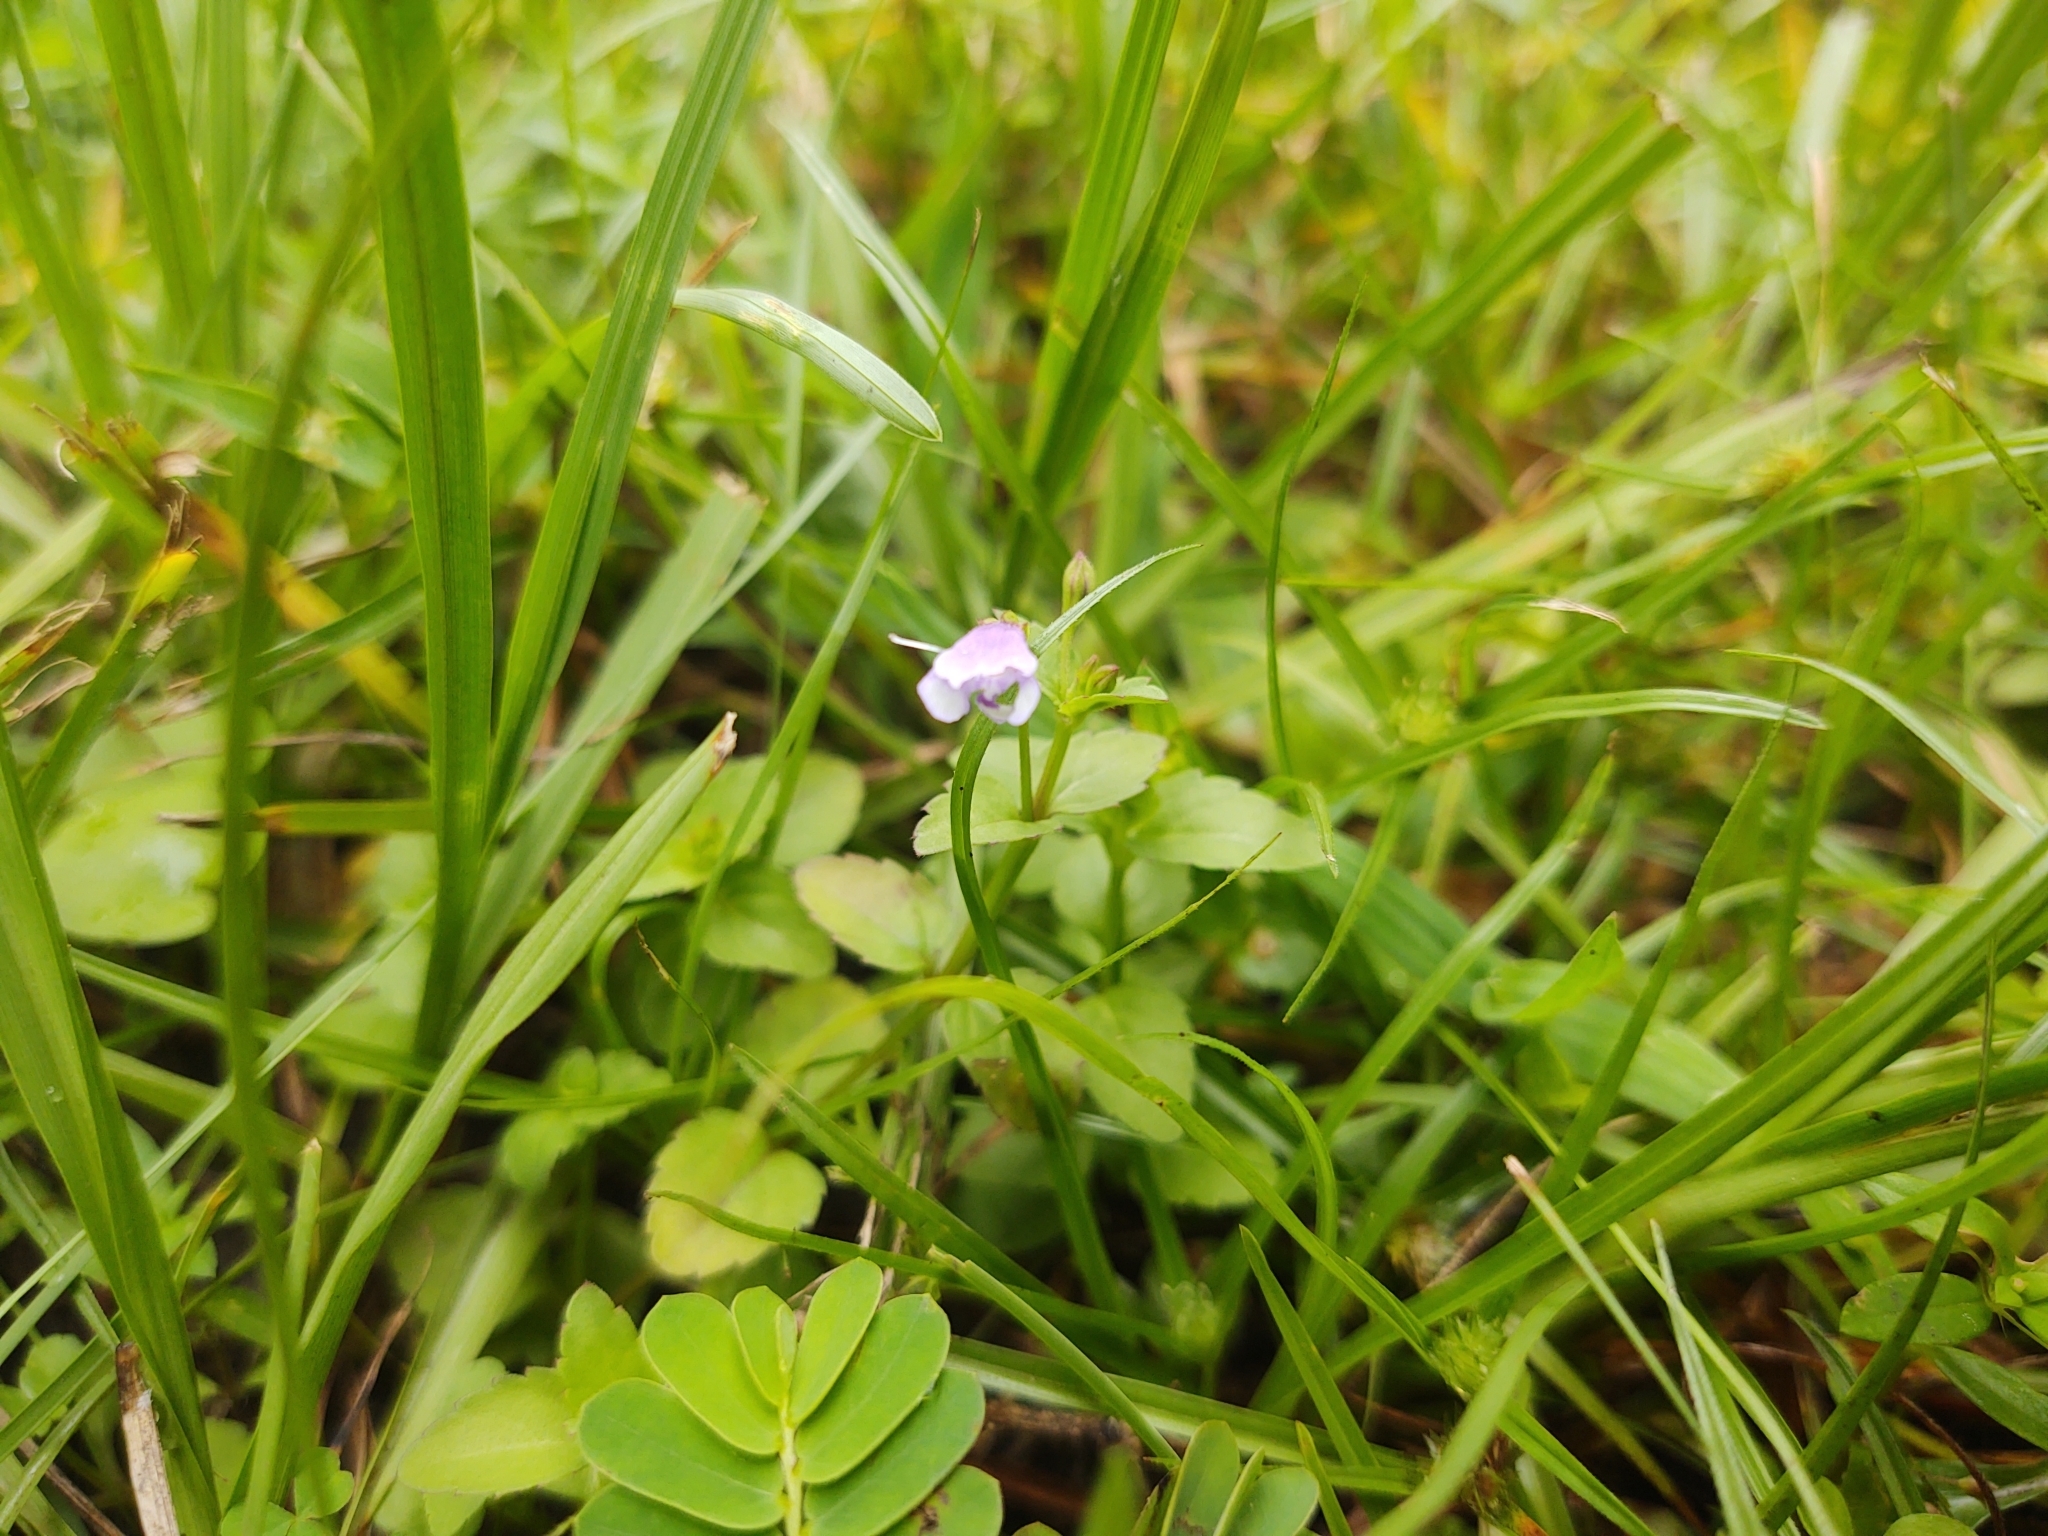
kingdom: Plantae
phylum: Tracheophyta
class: Magnoliopsida
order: Lamiales
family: Linderniaceae
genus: Torenia
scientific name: Torenia crustacea
